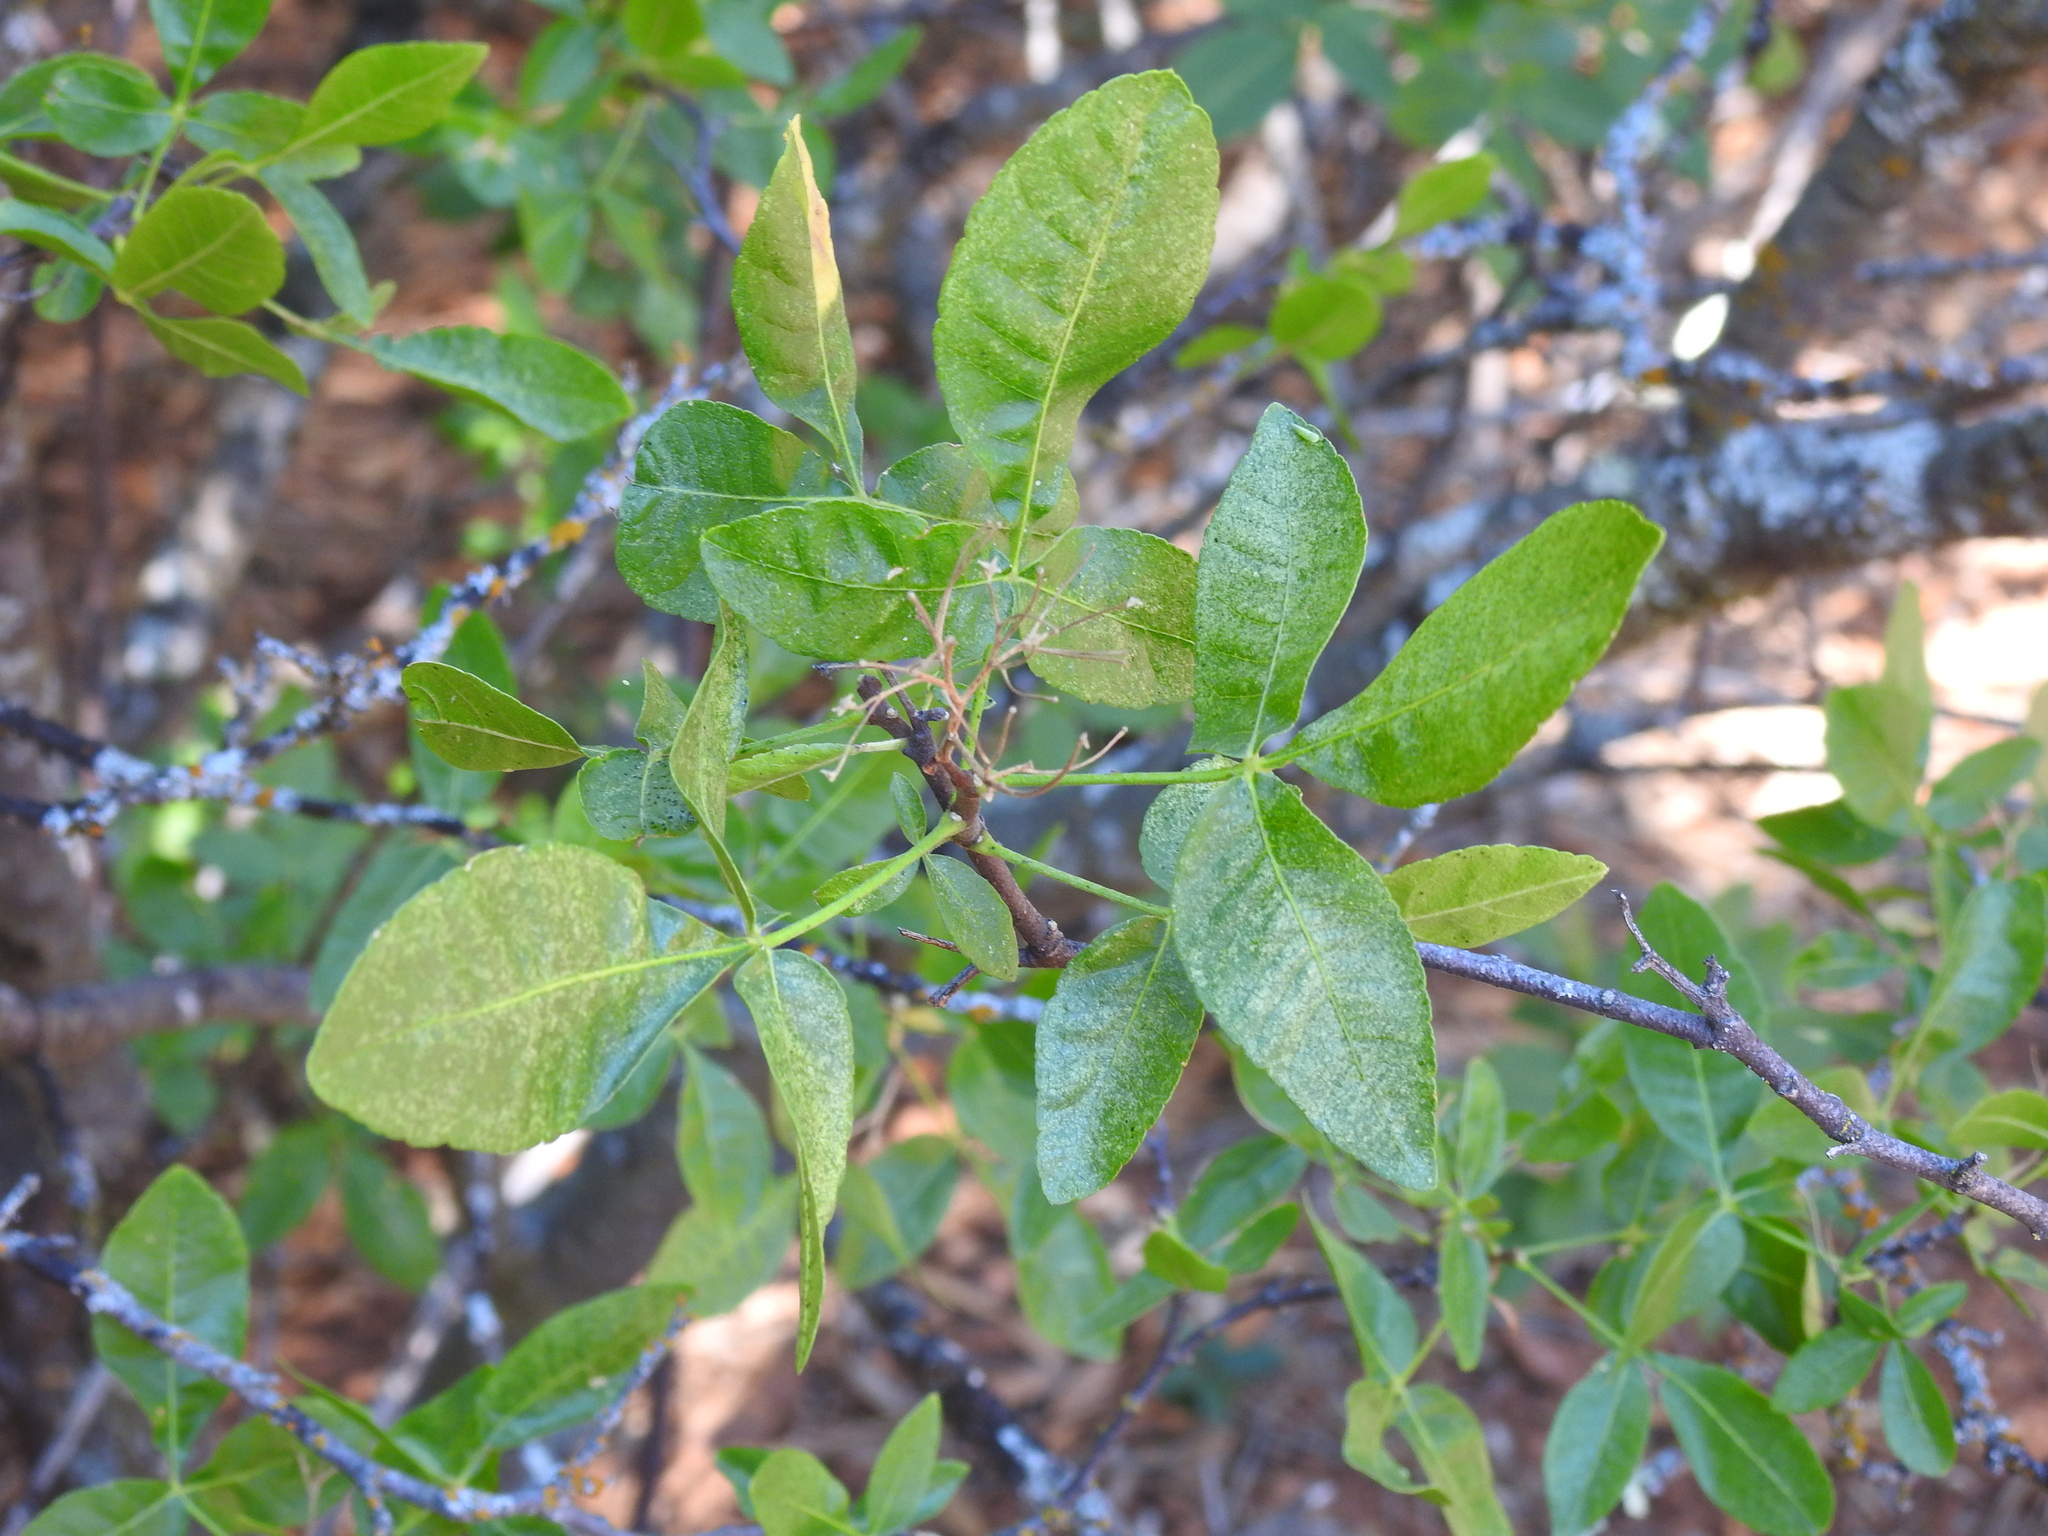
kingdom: Plantae
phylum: Tracheophyta
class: Magnoliopsida
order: Sapindales
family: Rutaceae
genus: Ptelea
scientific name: Ptelea crenulata
